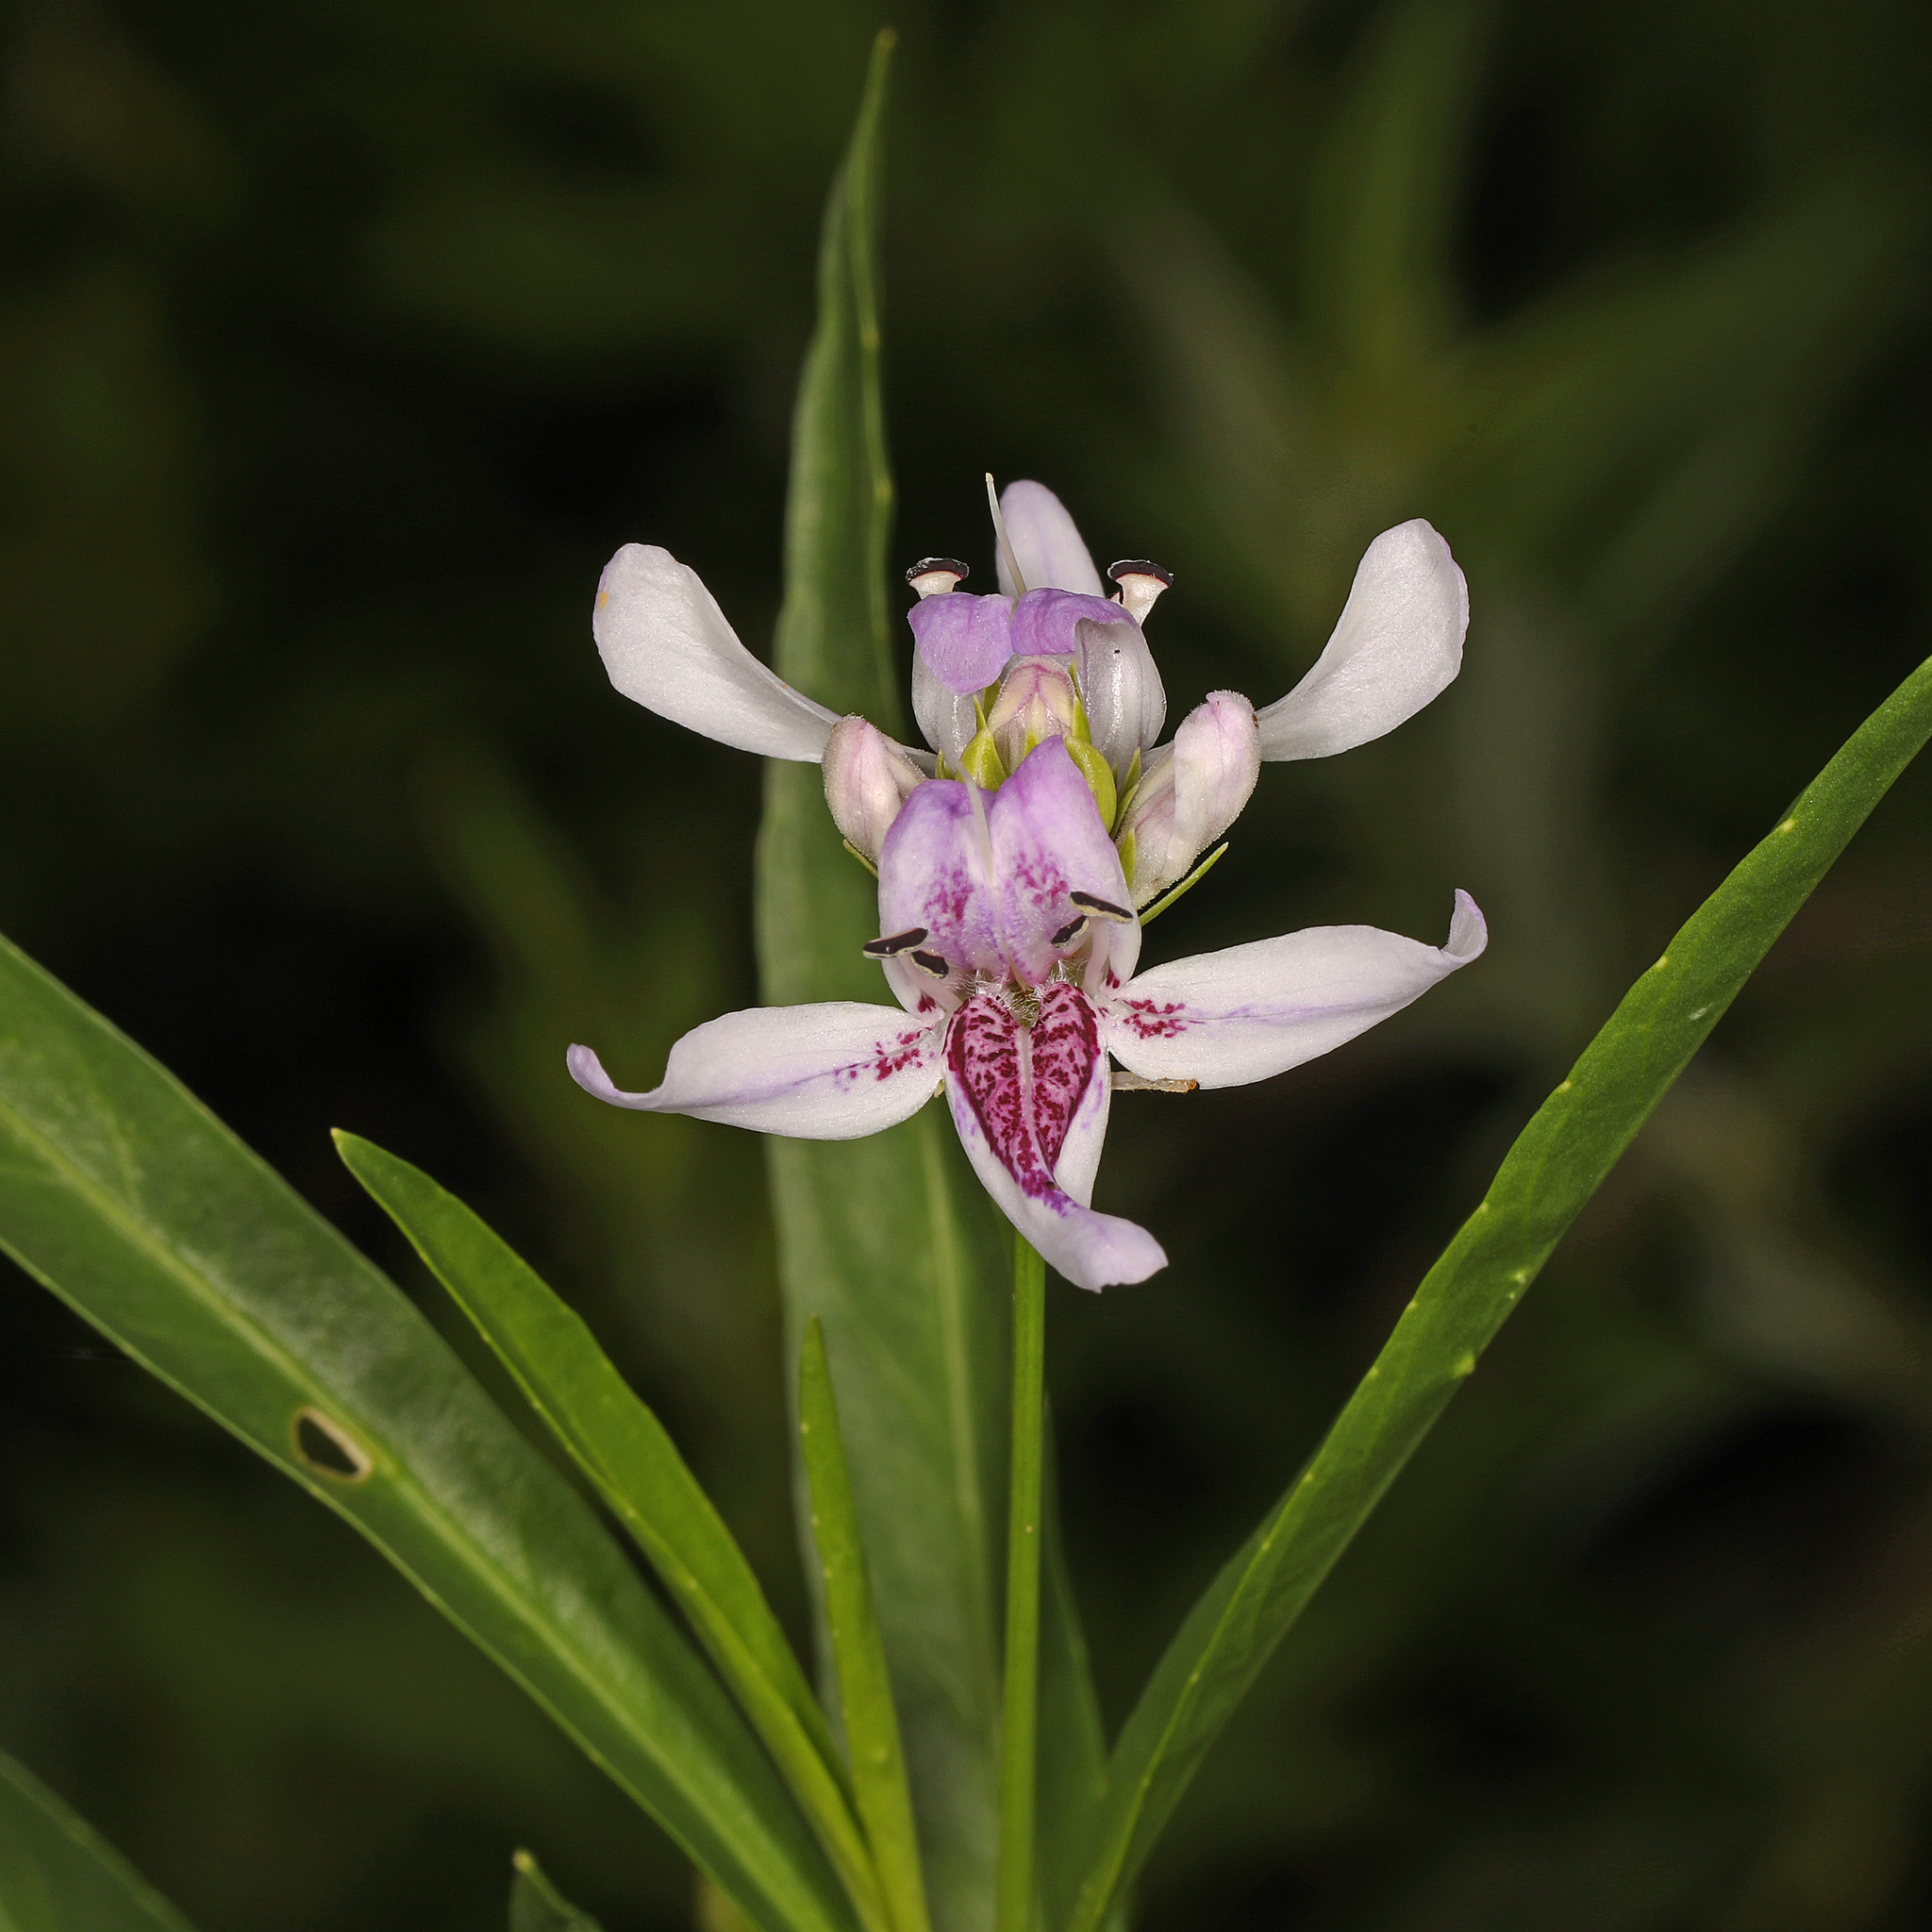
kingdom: Plantae
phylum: Tracheophyta
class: Magnoliopsida
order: Lamiales
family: Acanthaceae
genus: Dianthera
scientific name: Dianthera americana
